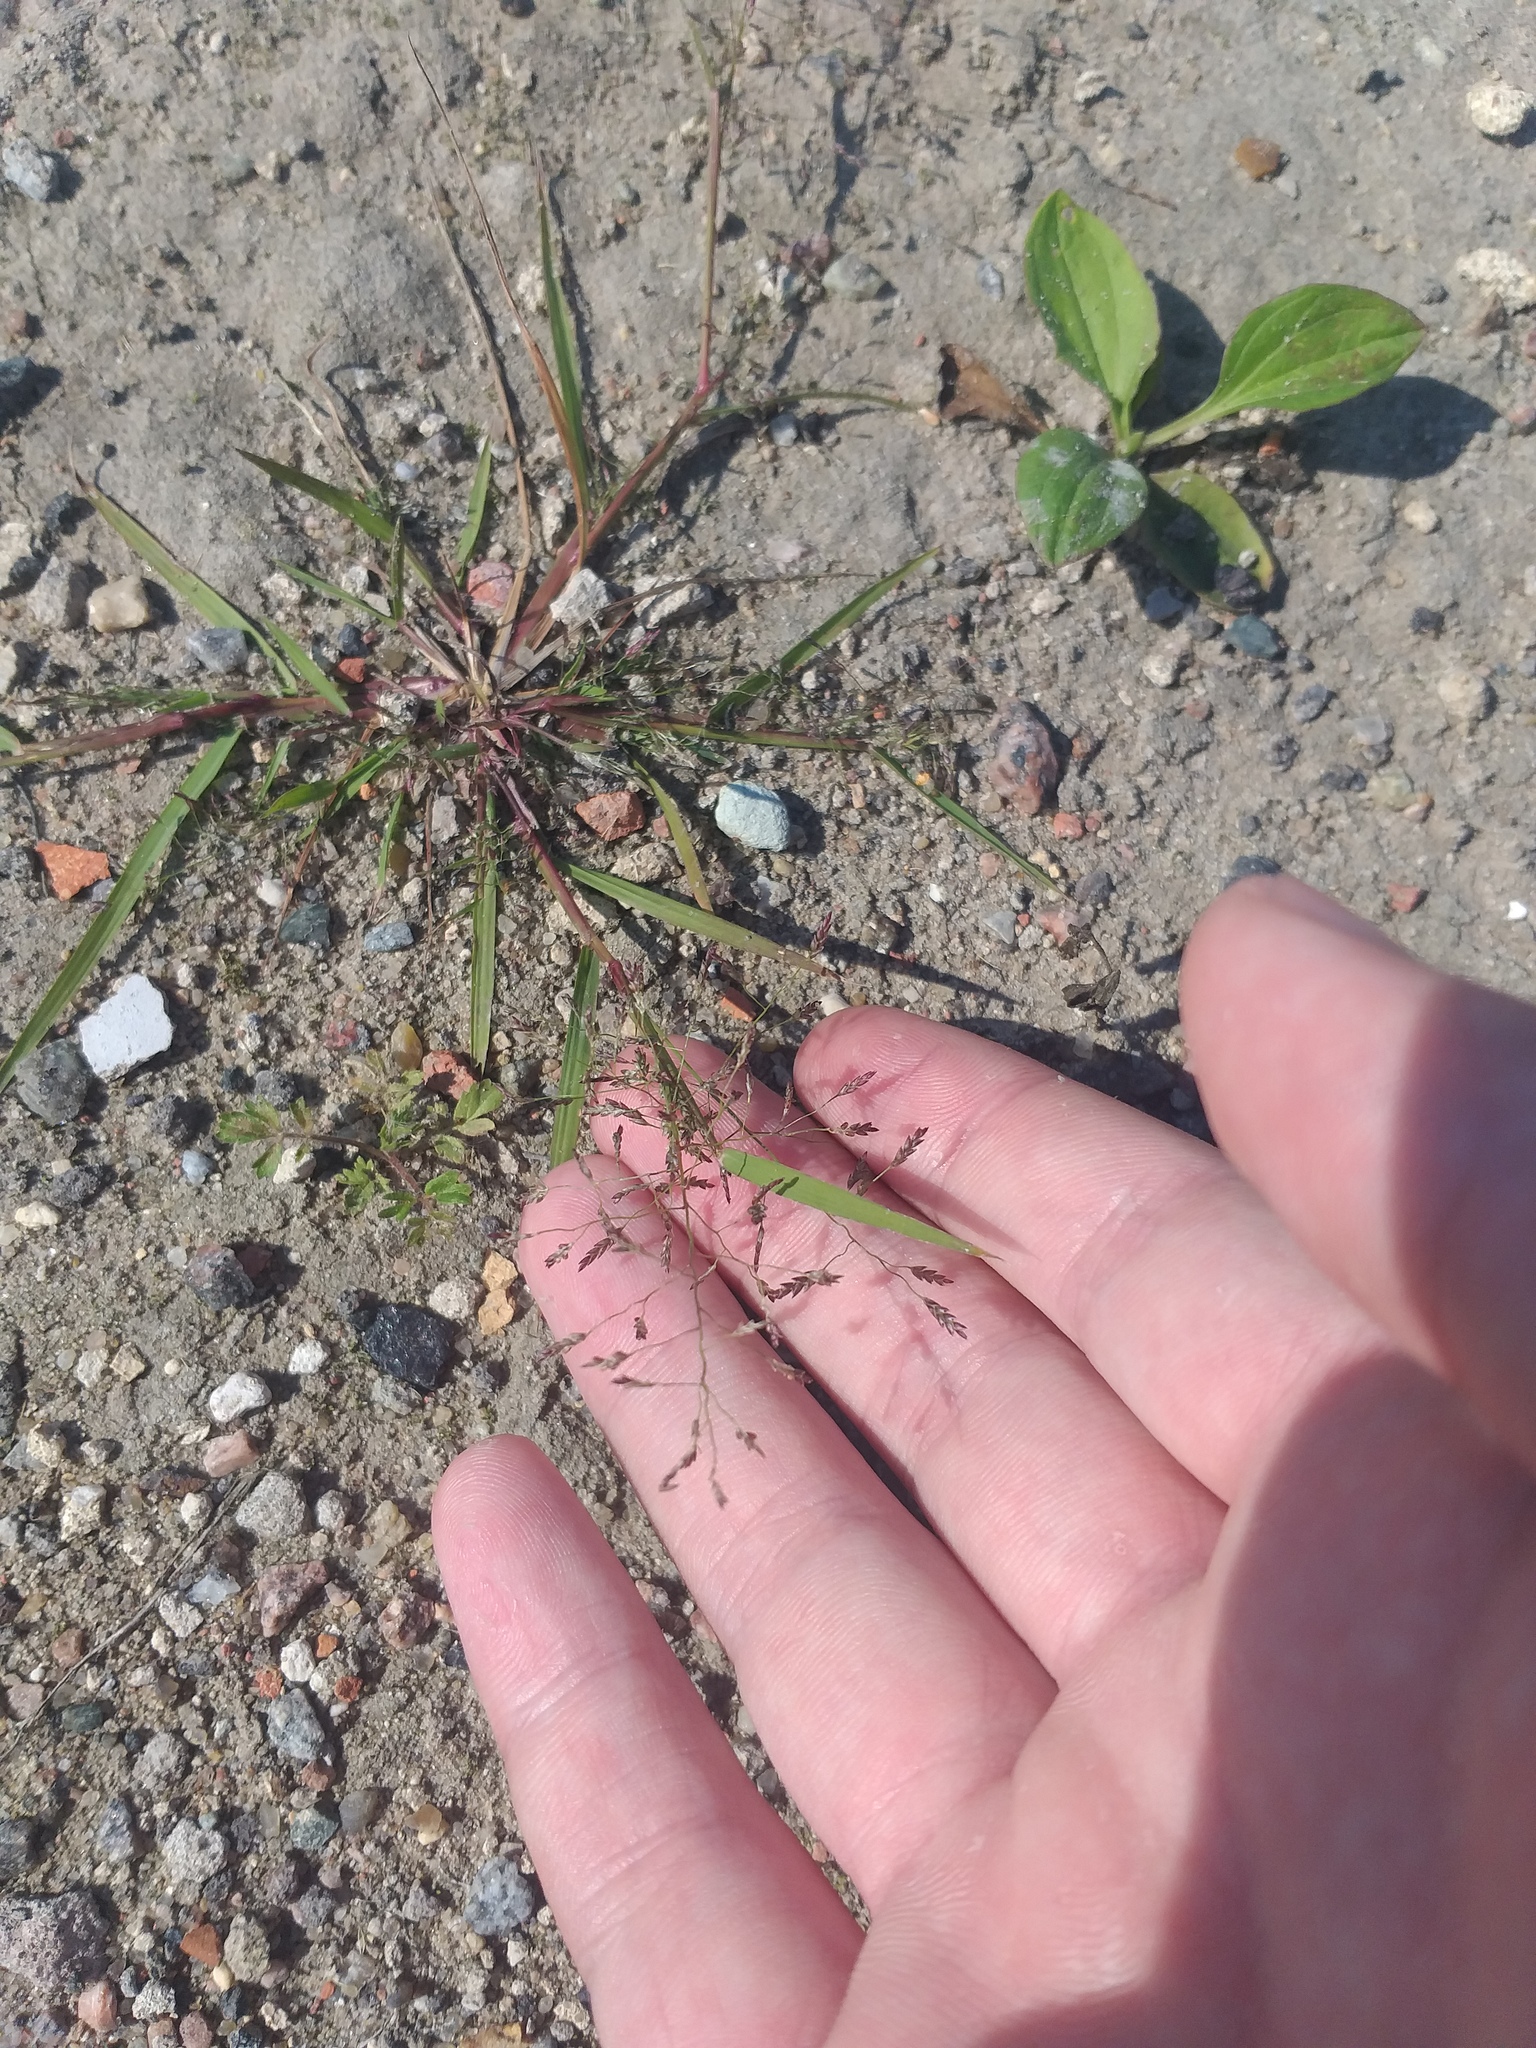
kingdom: Plantae
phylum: Tracheophyta
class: Liliopsida
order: Poales
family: Poaceae
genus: Eragrostis
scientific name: Eragrostis minor
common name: Small love-grass
